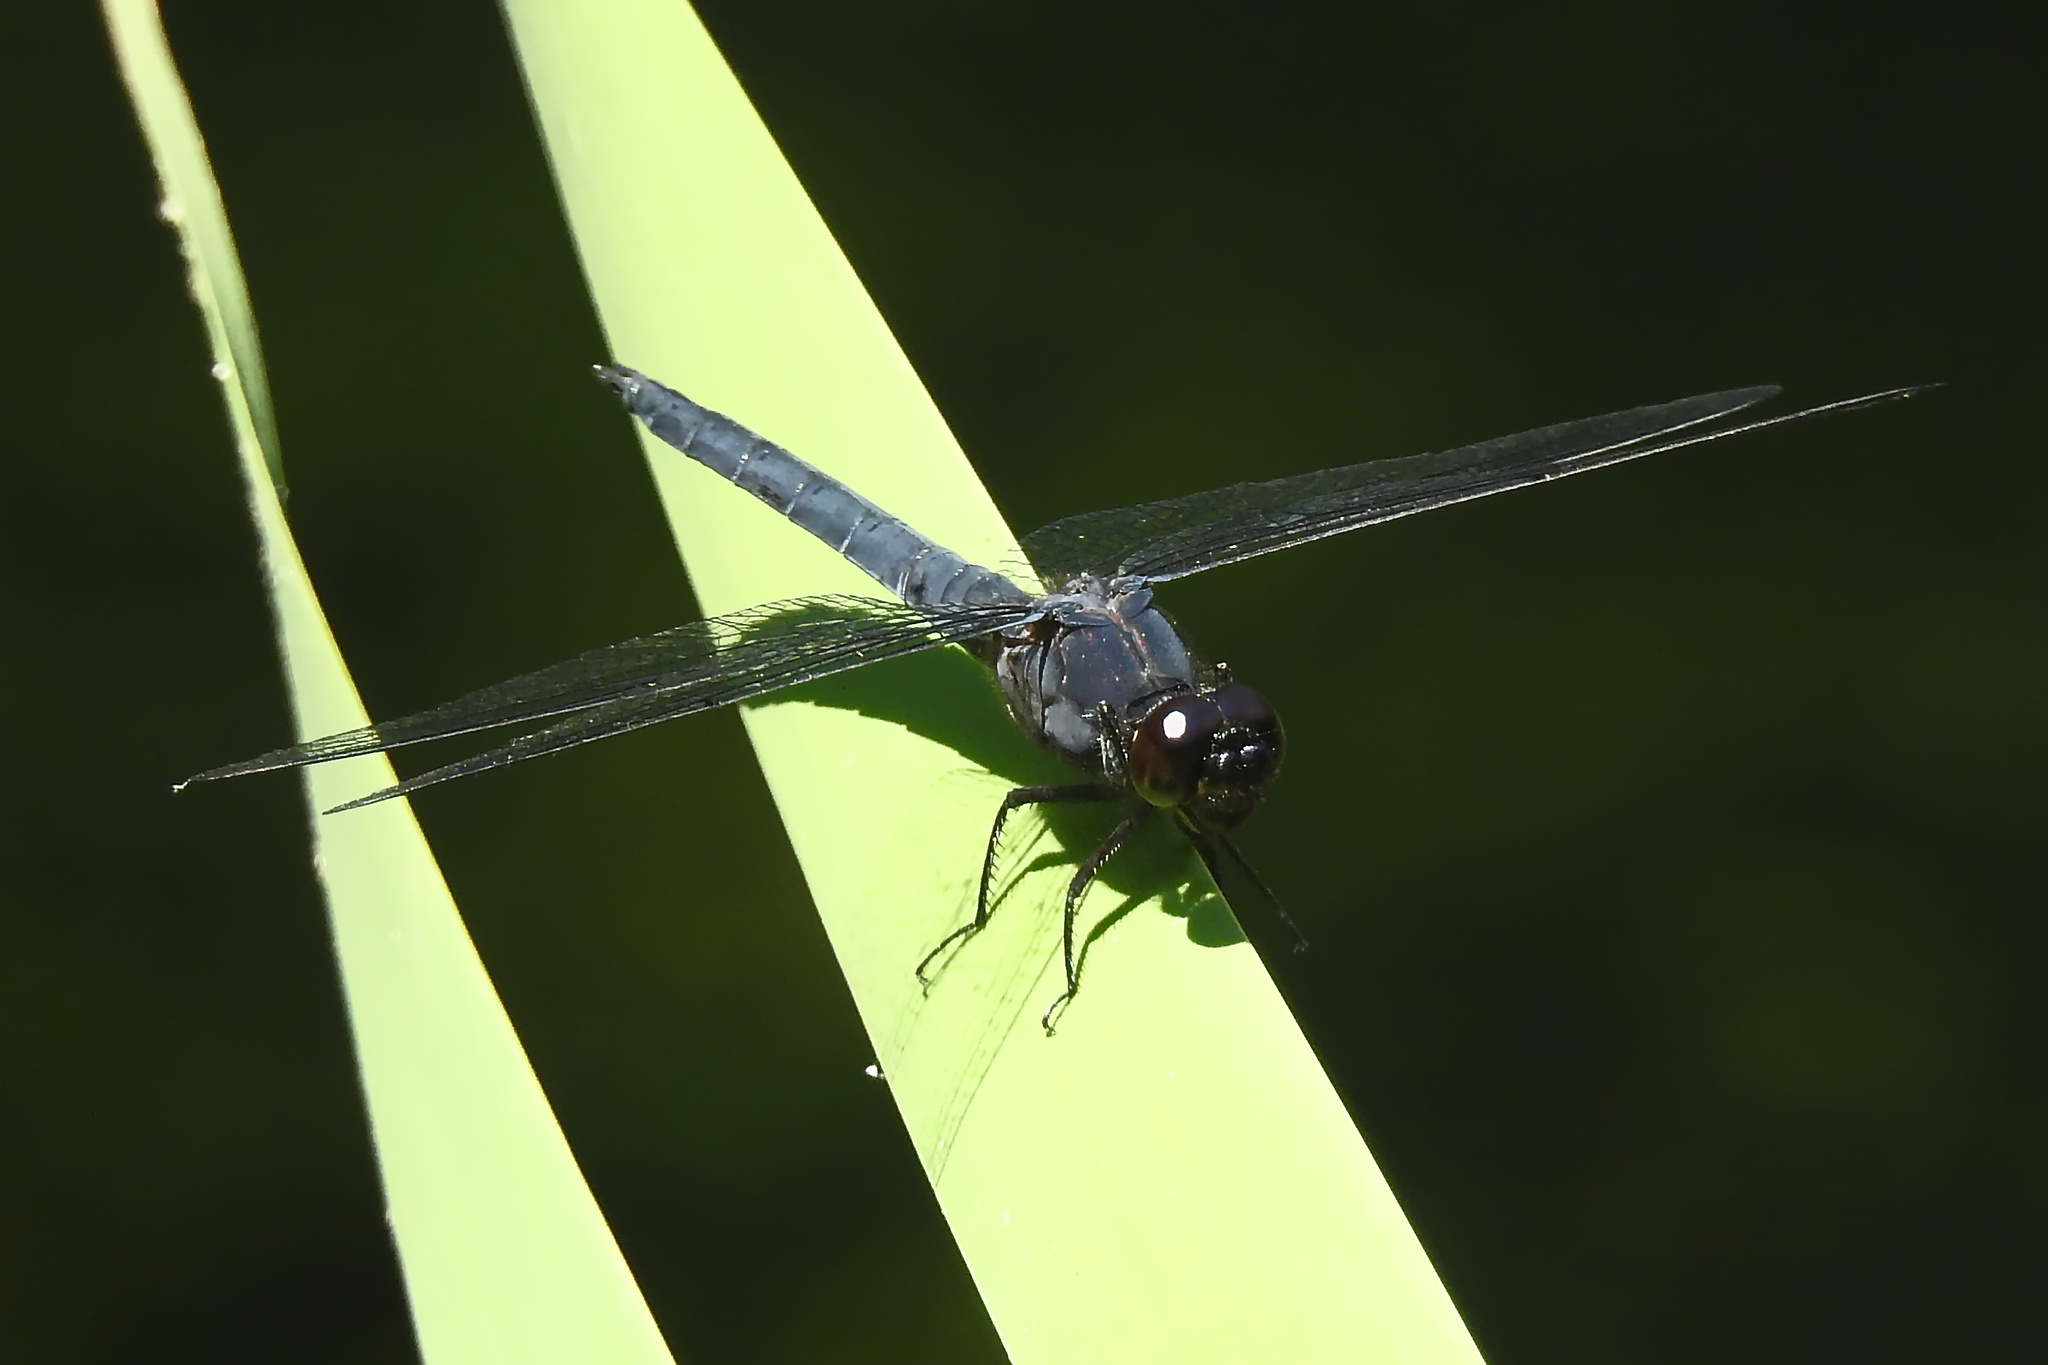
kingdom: Animalia
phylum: Arthropoda
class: Insecta
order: Odonata
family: Libellulidae
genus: Libellula
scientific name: Libellula incesta
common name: Slaty skimmer
